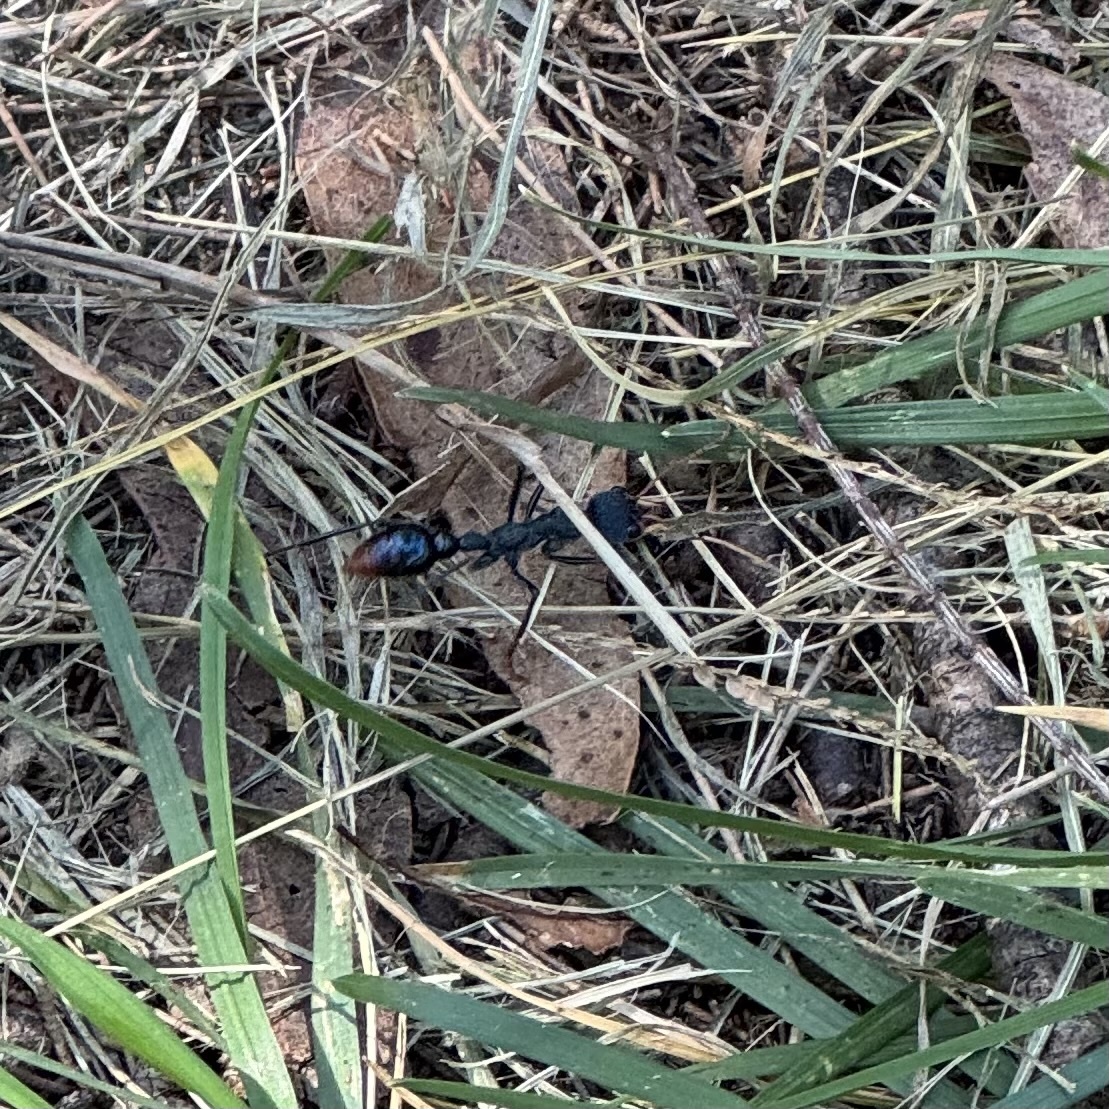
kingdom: Animalia
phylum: Arthropoda
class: Insecta
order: Hymenoptera
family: Formicidae
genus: Myrmecia
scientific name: Myrmecia tarsata
